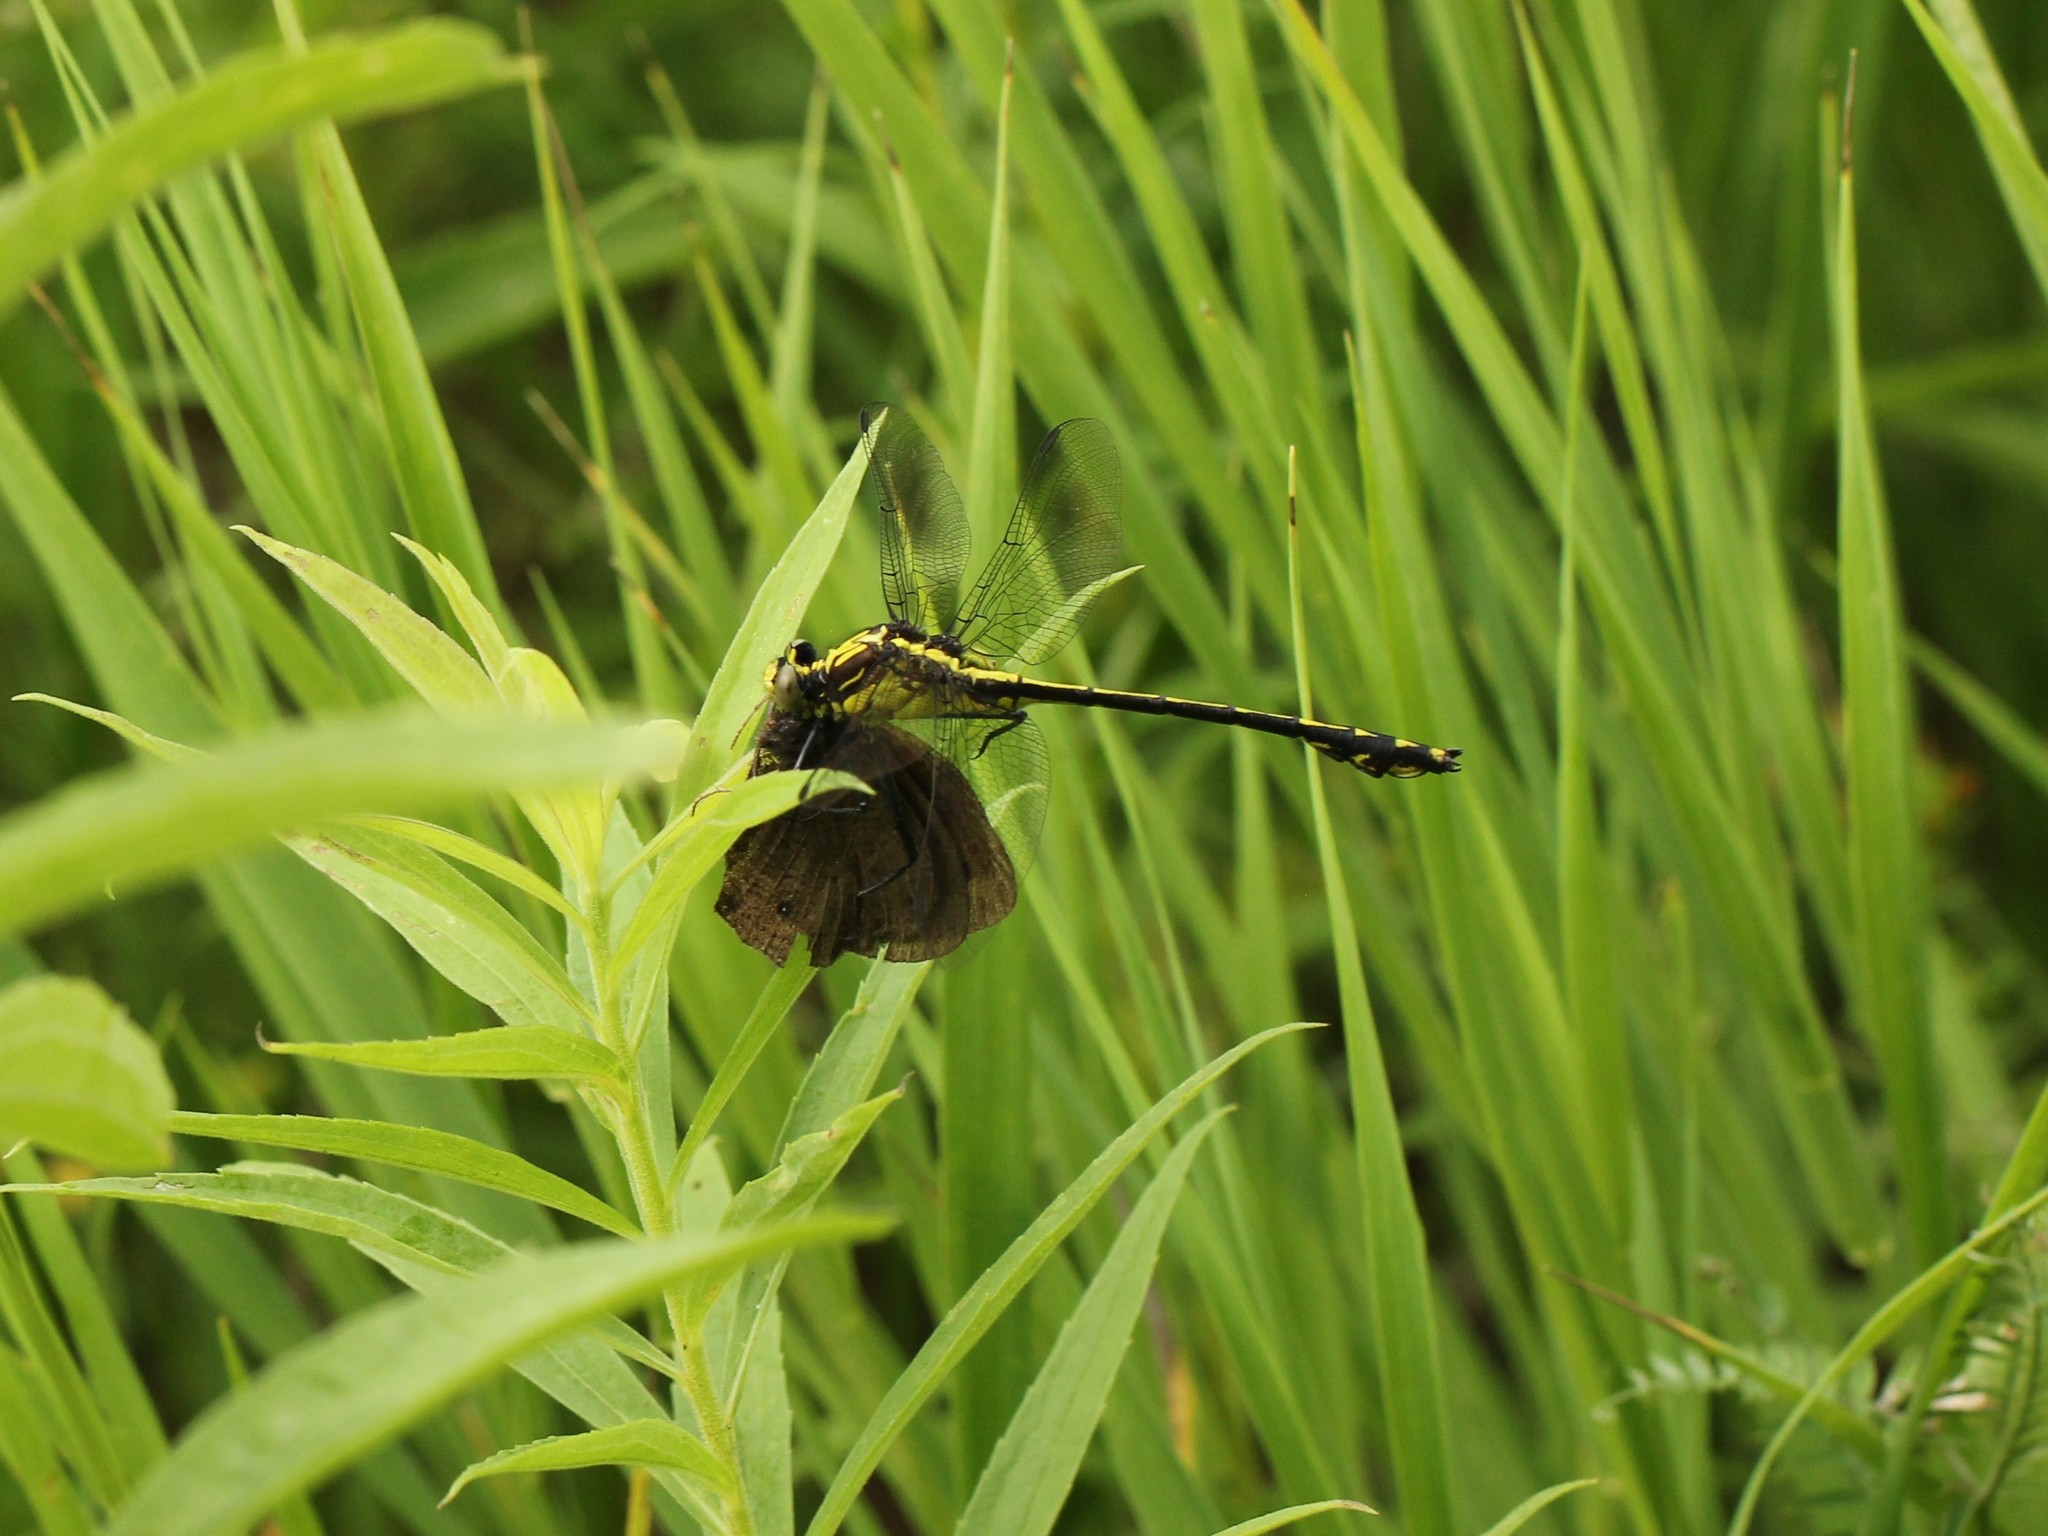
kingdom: Animalia
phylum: Arthropoda
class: Insecta
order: Odonata
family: Gomphidae
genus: Dromogomphus
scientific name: Dromogomphus spinosus
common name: Black-shouldered spinyleg
